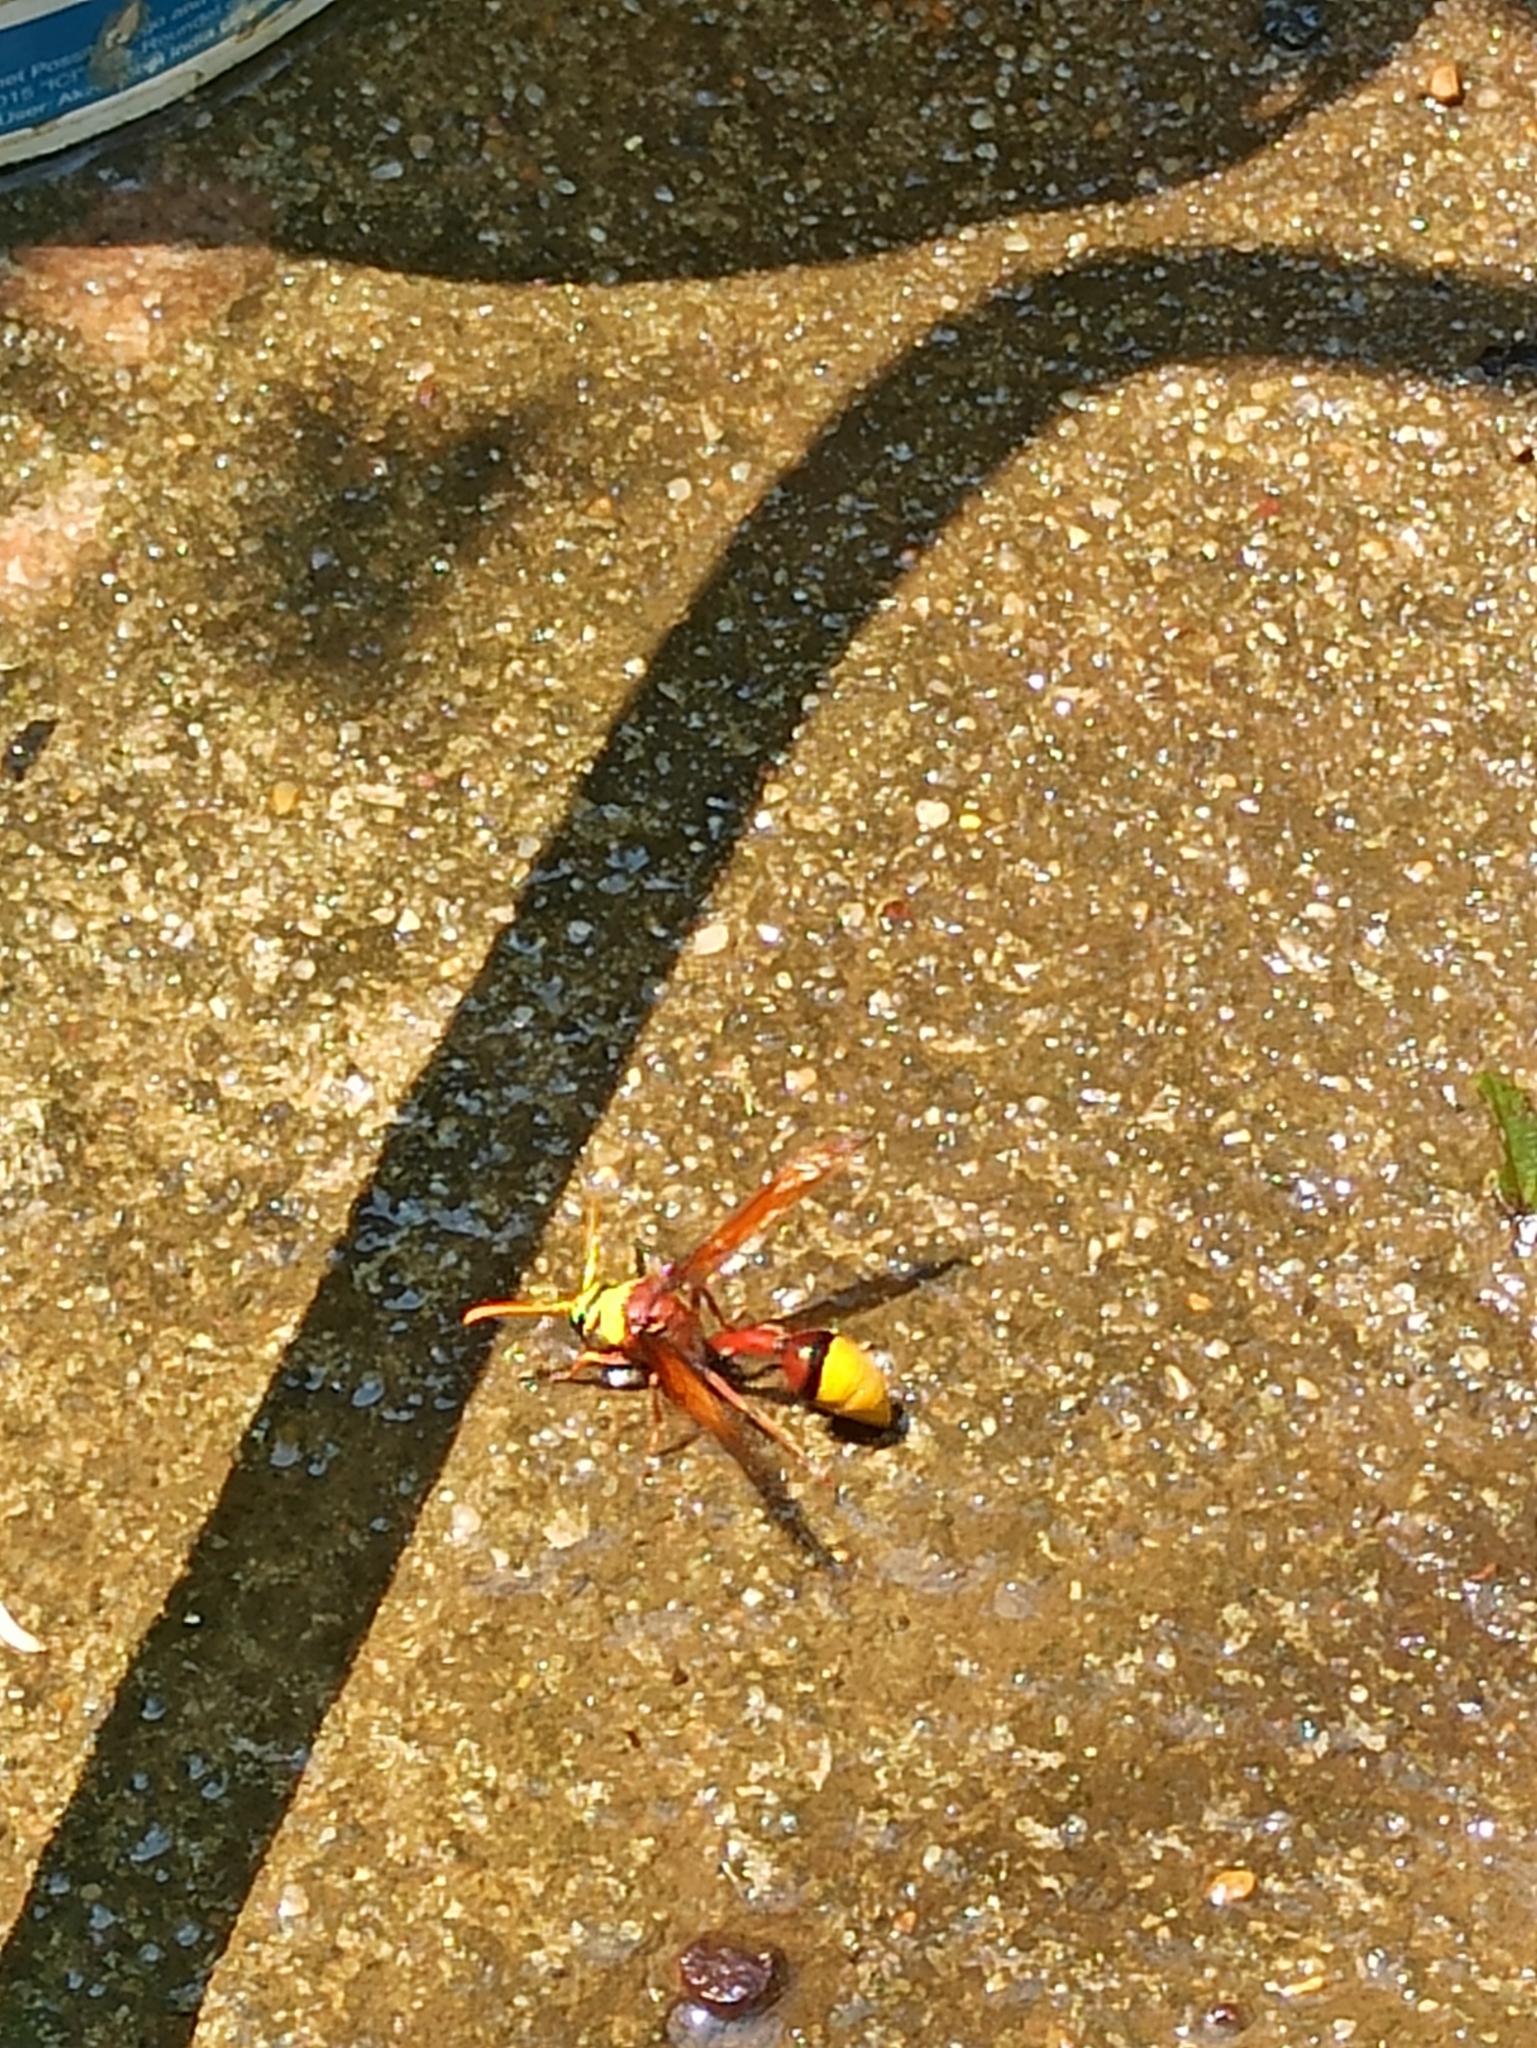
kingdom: Animalia
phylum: Arthropoda
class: Insecta
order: Hymenoptera
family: Eumenidae
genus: Delta
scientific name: Delta pyriforme
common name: Wasp
